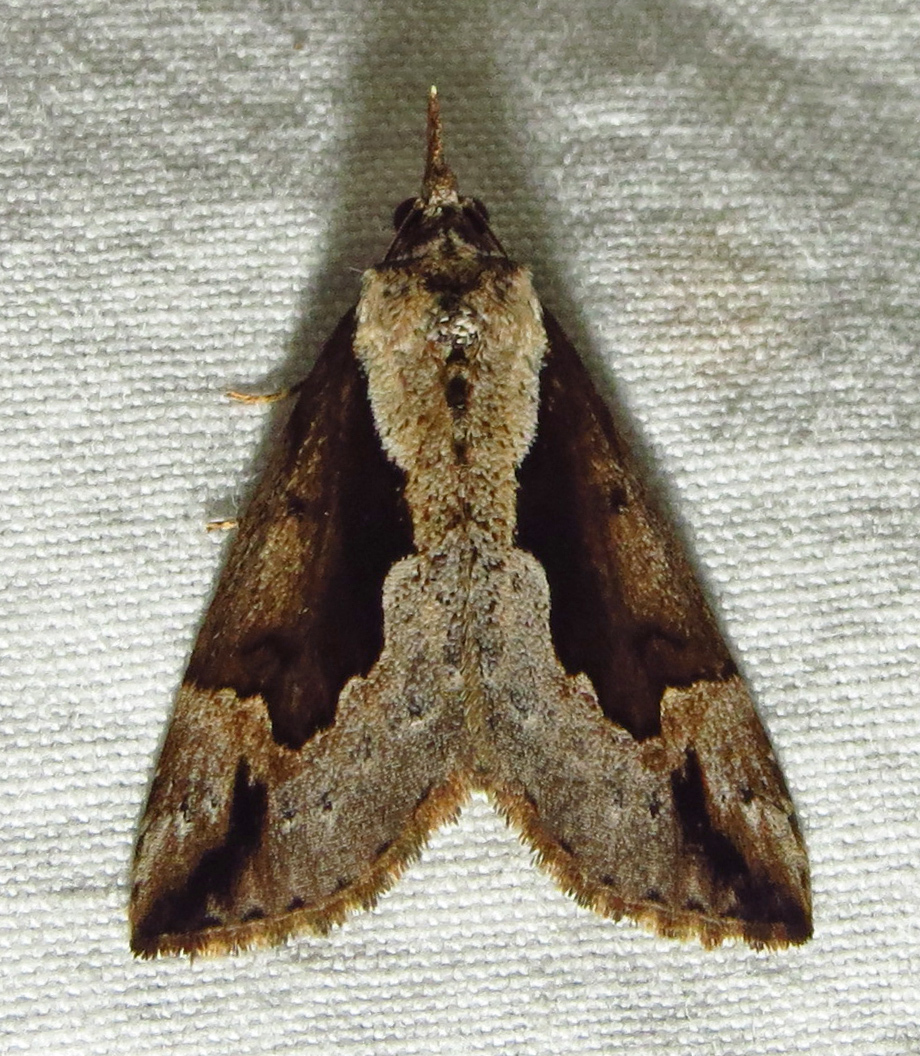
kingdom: Animalia
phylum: Arthropoda
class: Insecta
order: Lepidoptera
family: Erebidae
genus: Hypena
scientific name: Hypena baltimoralis
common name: Baltimore snout
